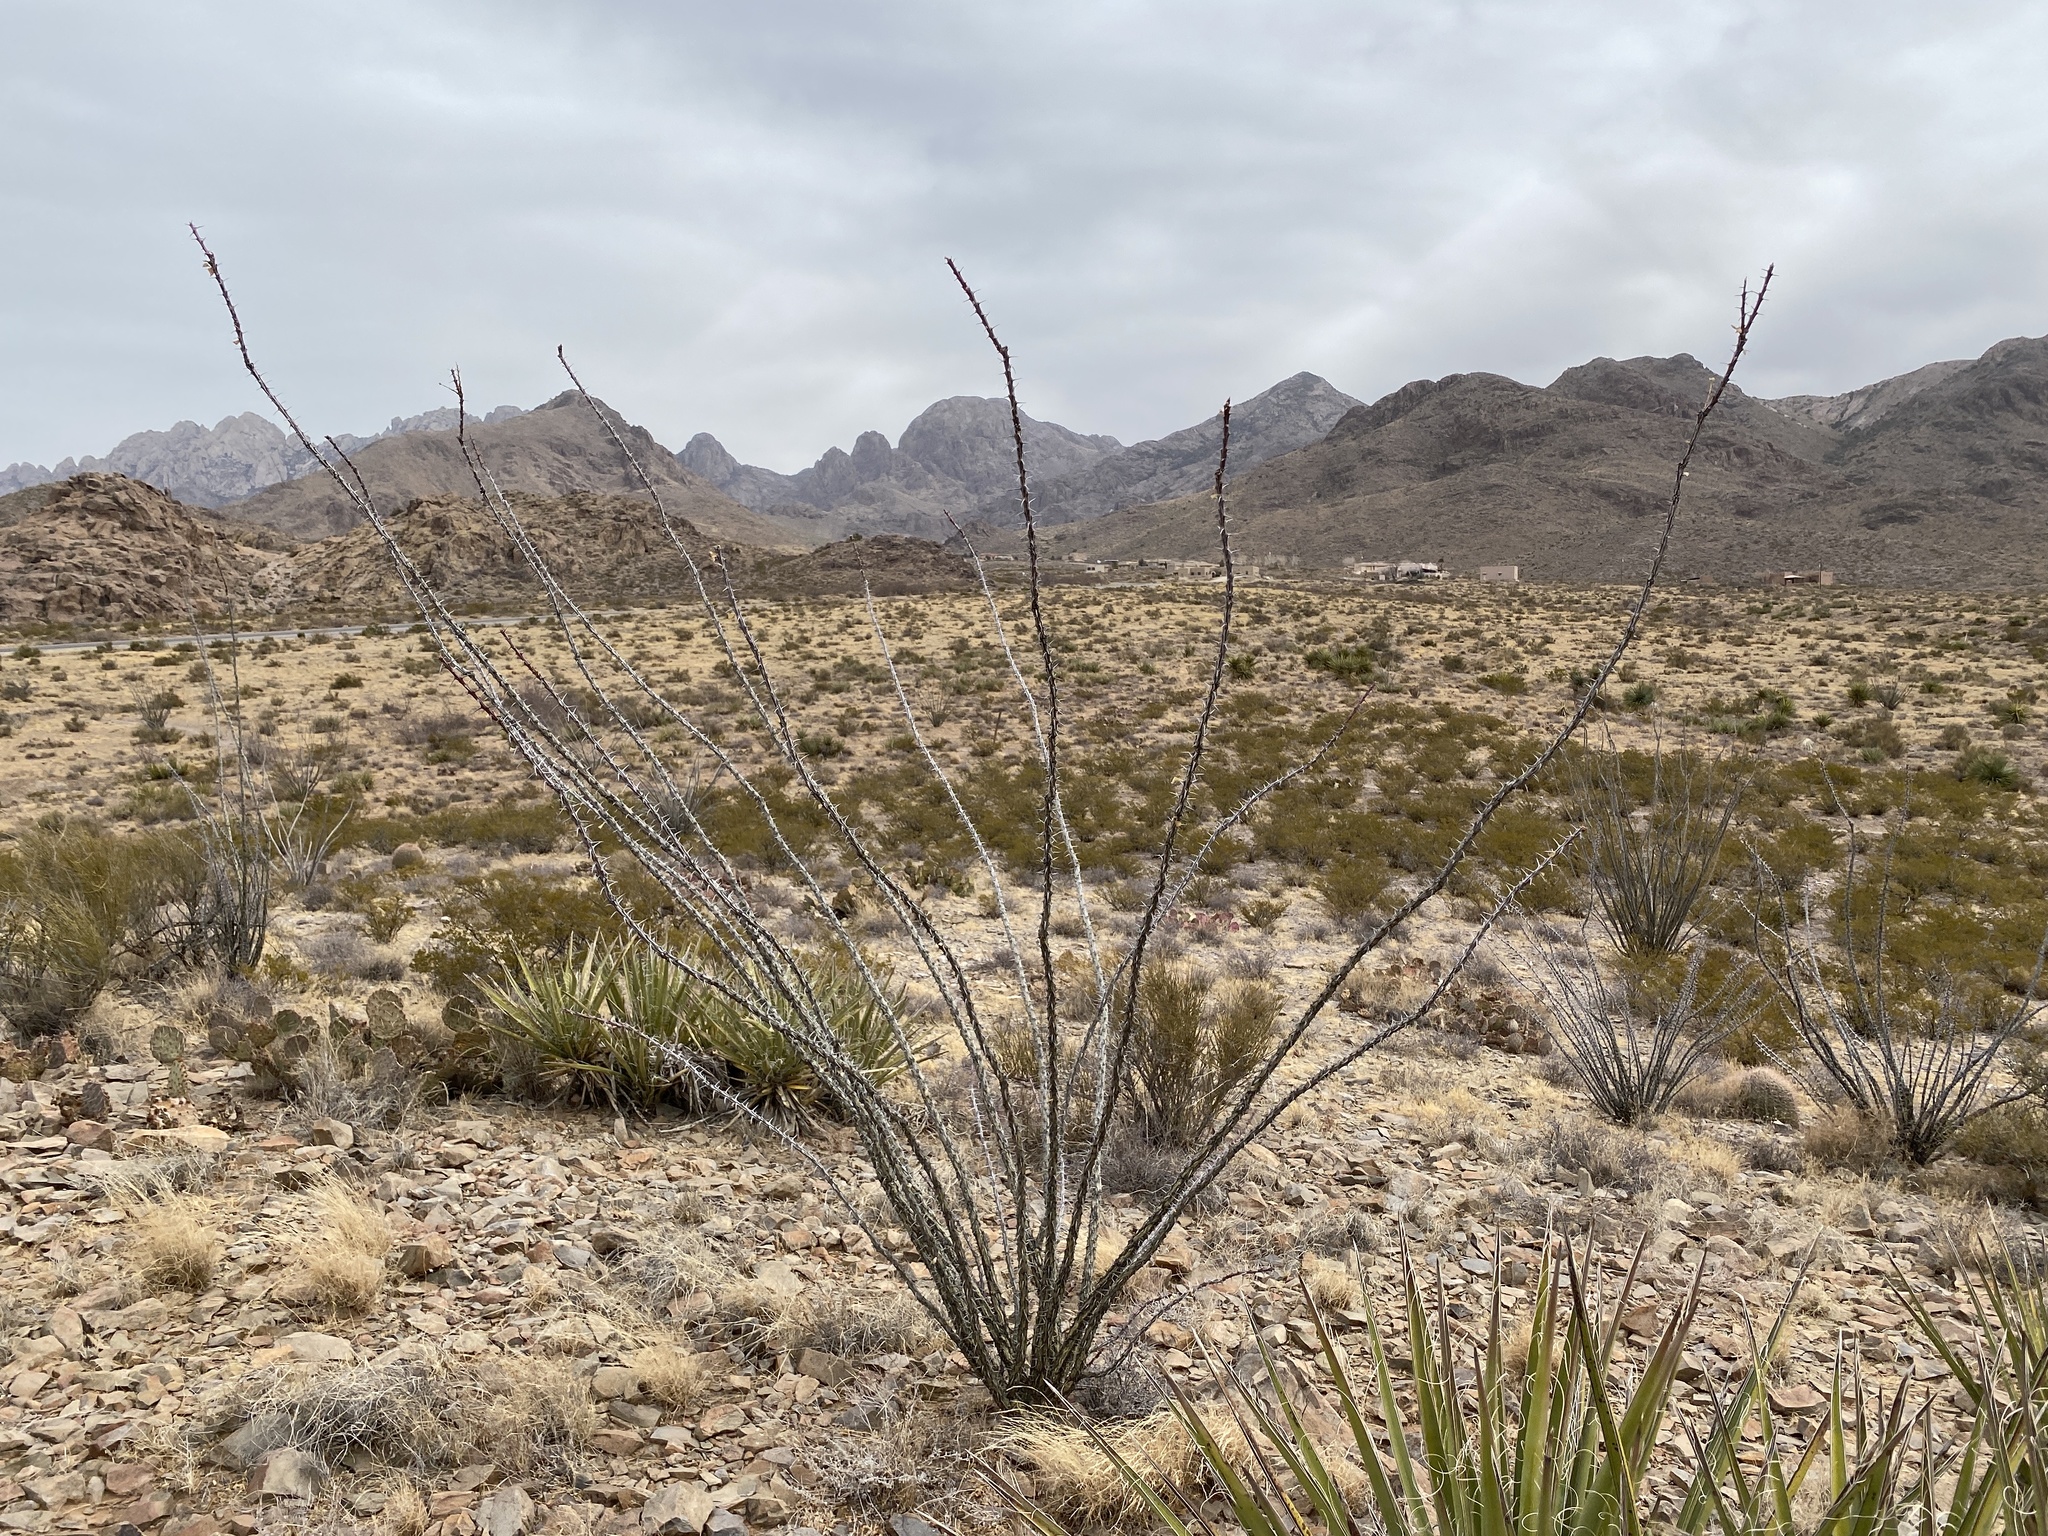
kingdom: Plantae
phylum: Tracheophyta
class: Magnoliopsida
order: Ericales
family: Fouquieriaceae
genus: Fouquieria
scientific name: Fouquieria splendens
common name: Vine-cactus
